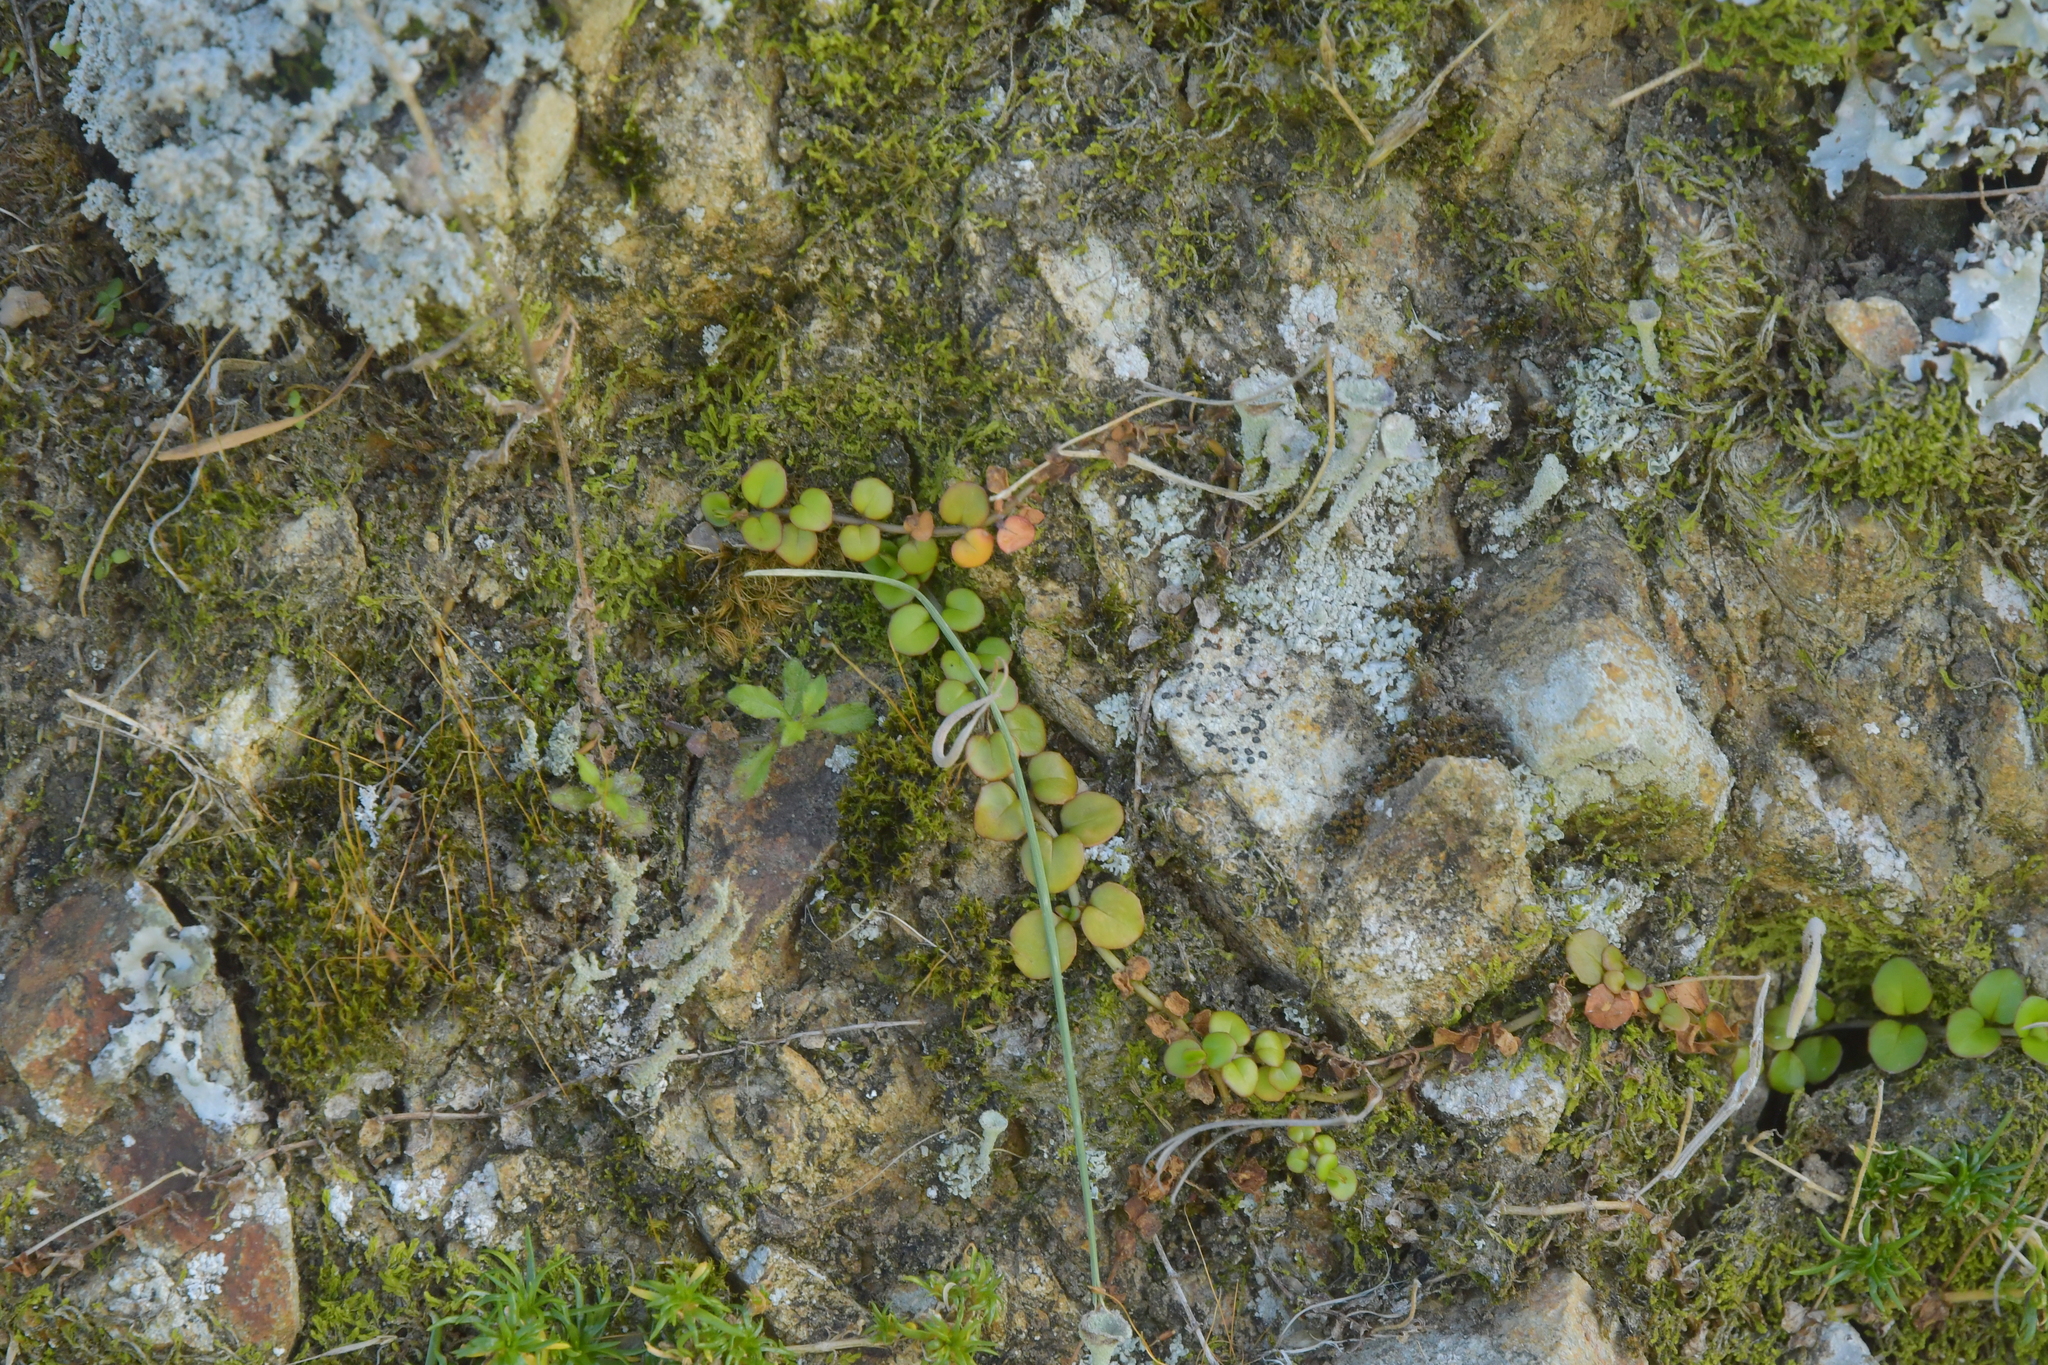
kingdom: Plantae
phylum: Tracheophyta
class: Magnoliopsida
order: Myrtales
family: Onagraceae
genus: Epilobium
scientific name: Epilobium nummularifolium
